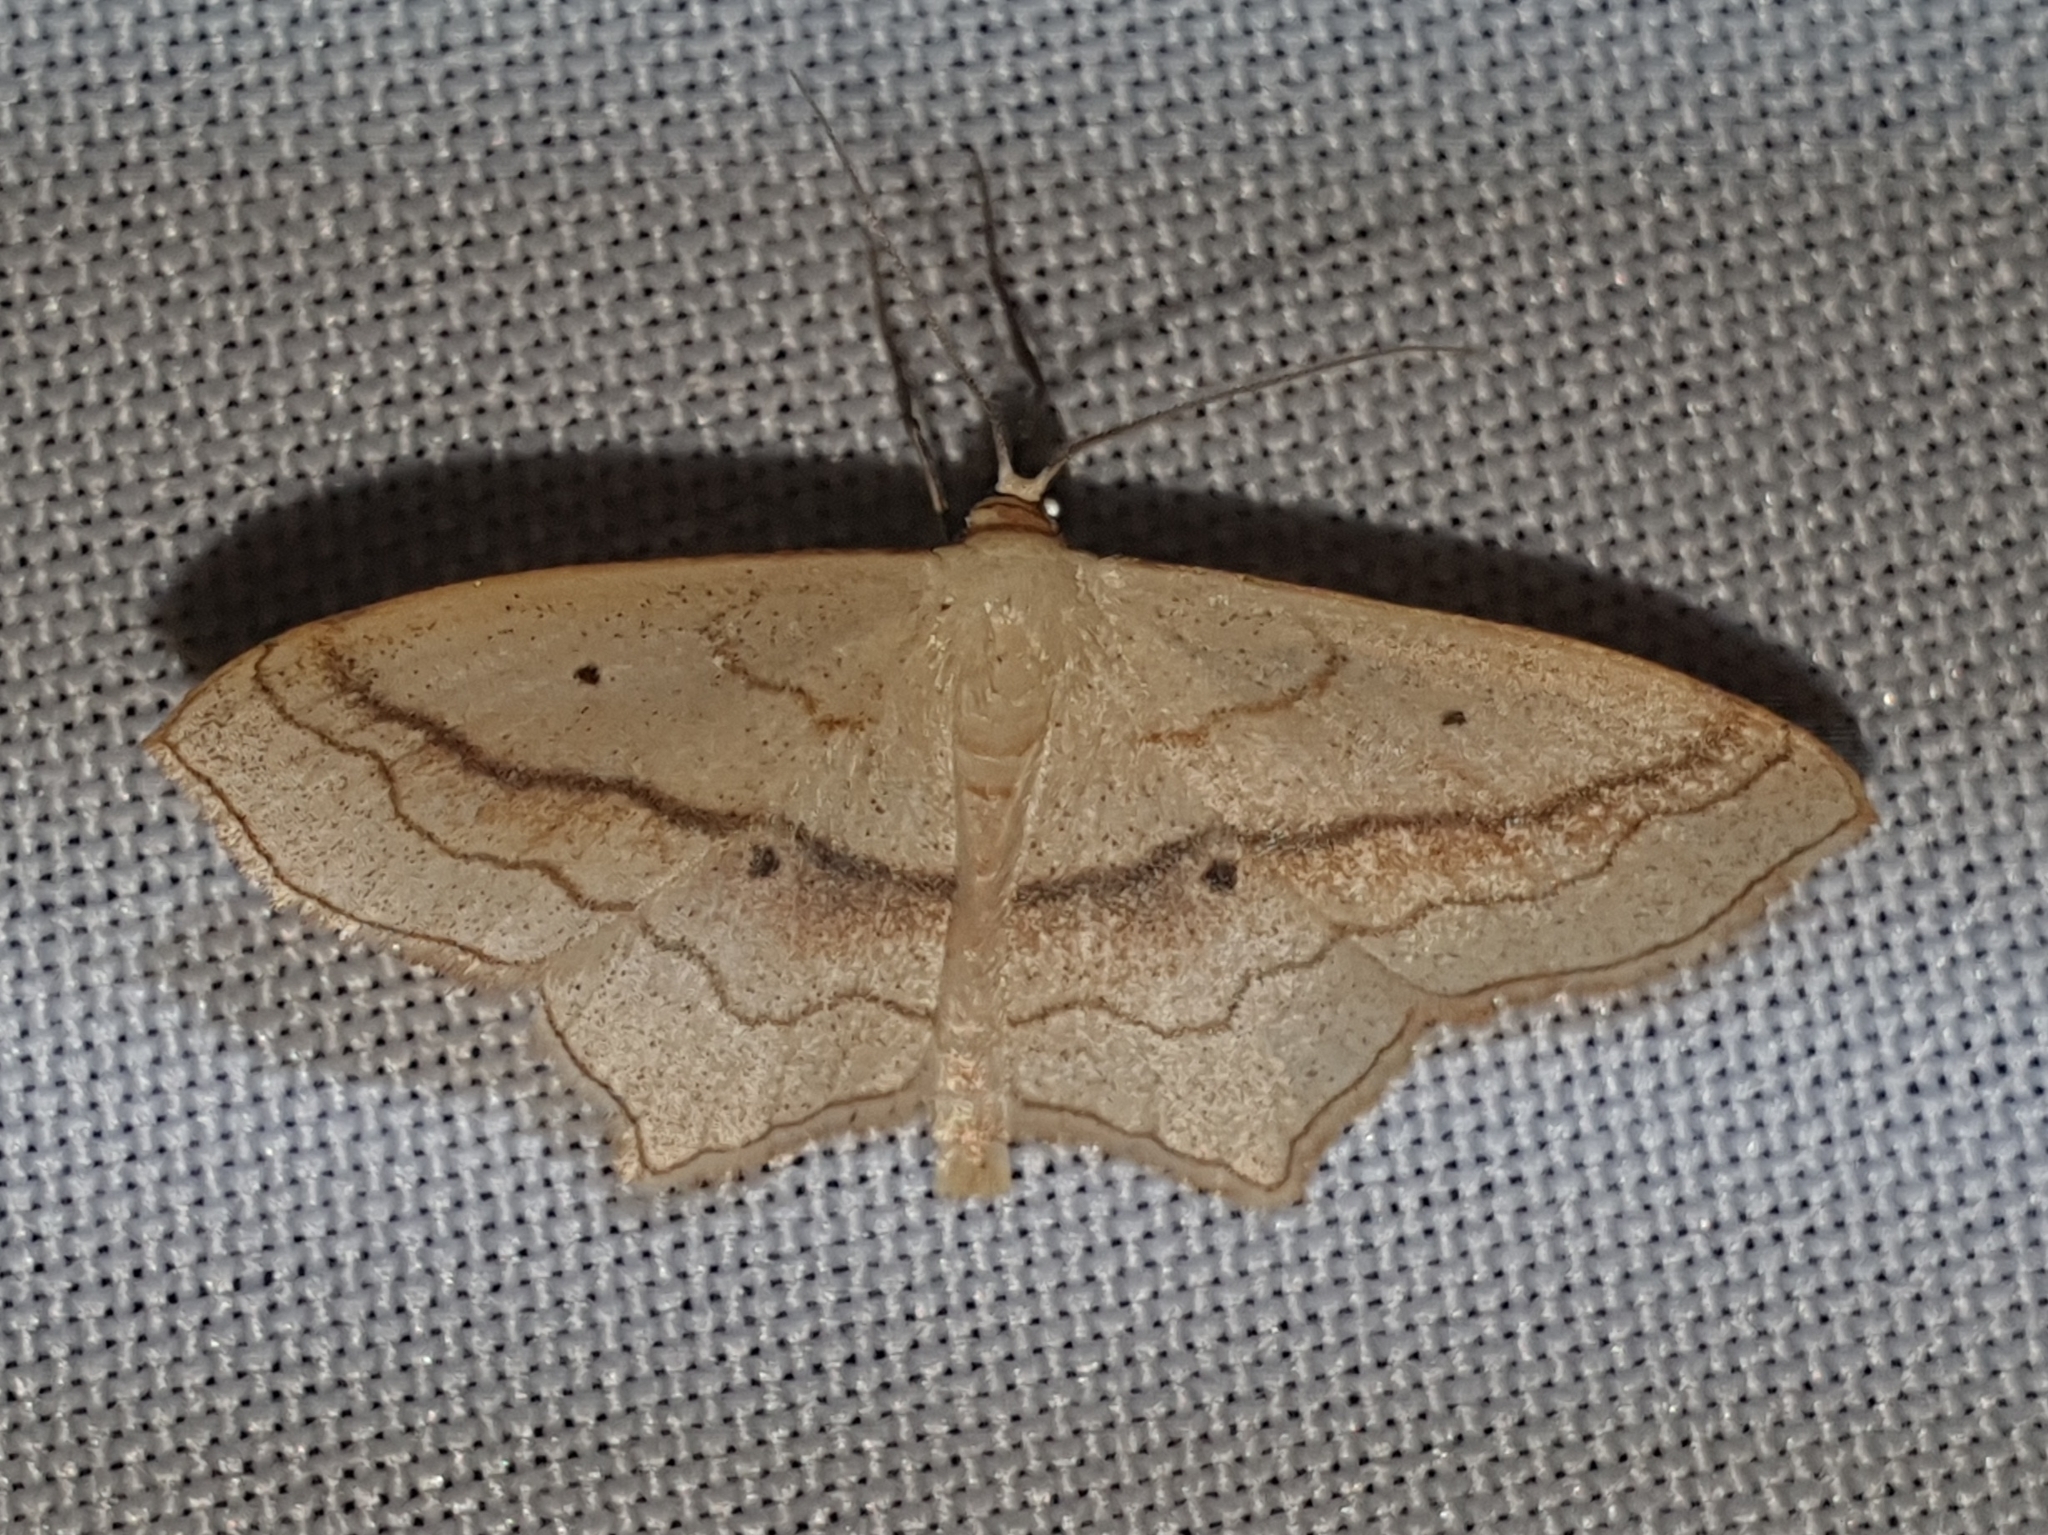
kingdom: Animalia
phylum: Arthropoda
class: Insecta
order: Lepidoptera
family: Geometridae
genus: Scopula
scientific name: Scopula imitaria
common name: Small blood-vein
